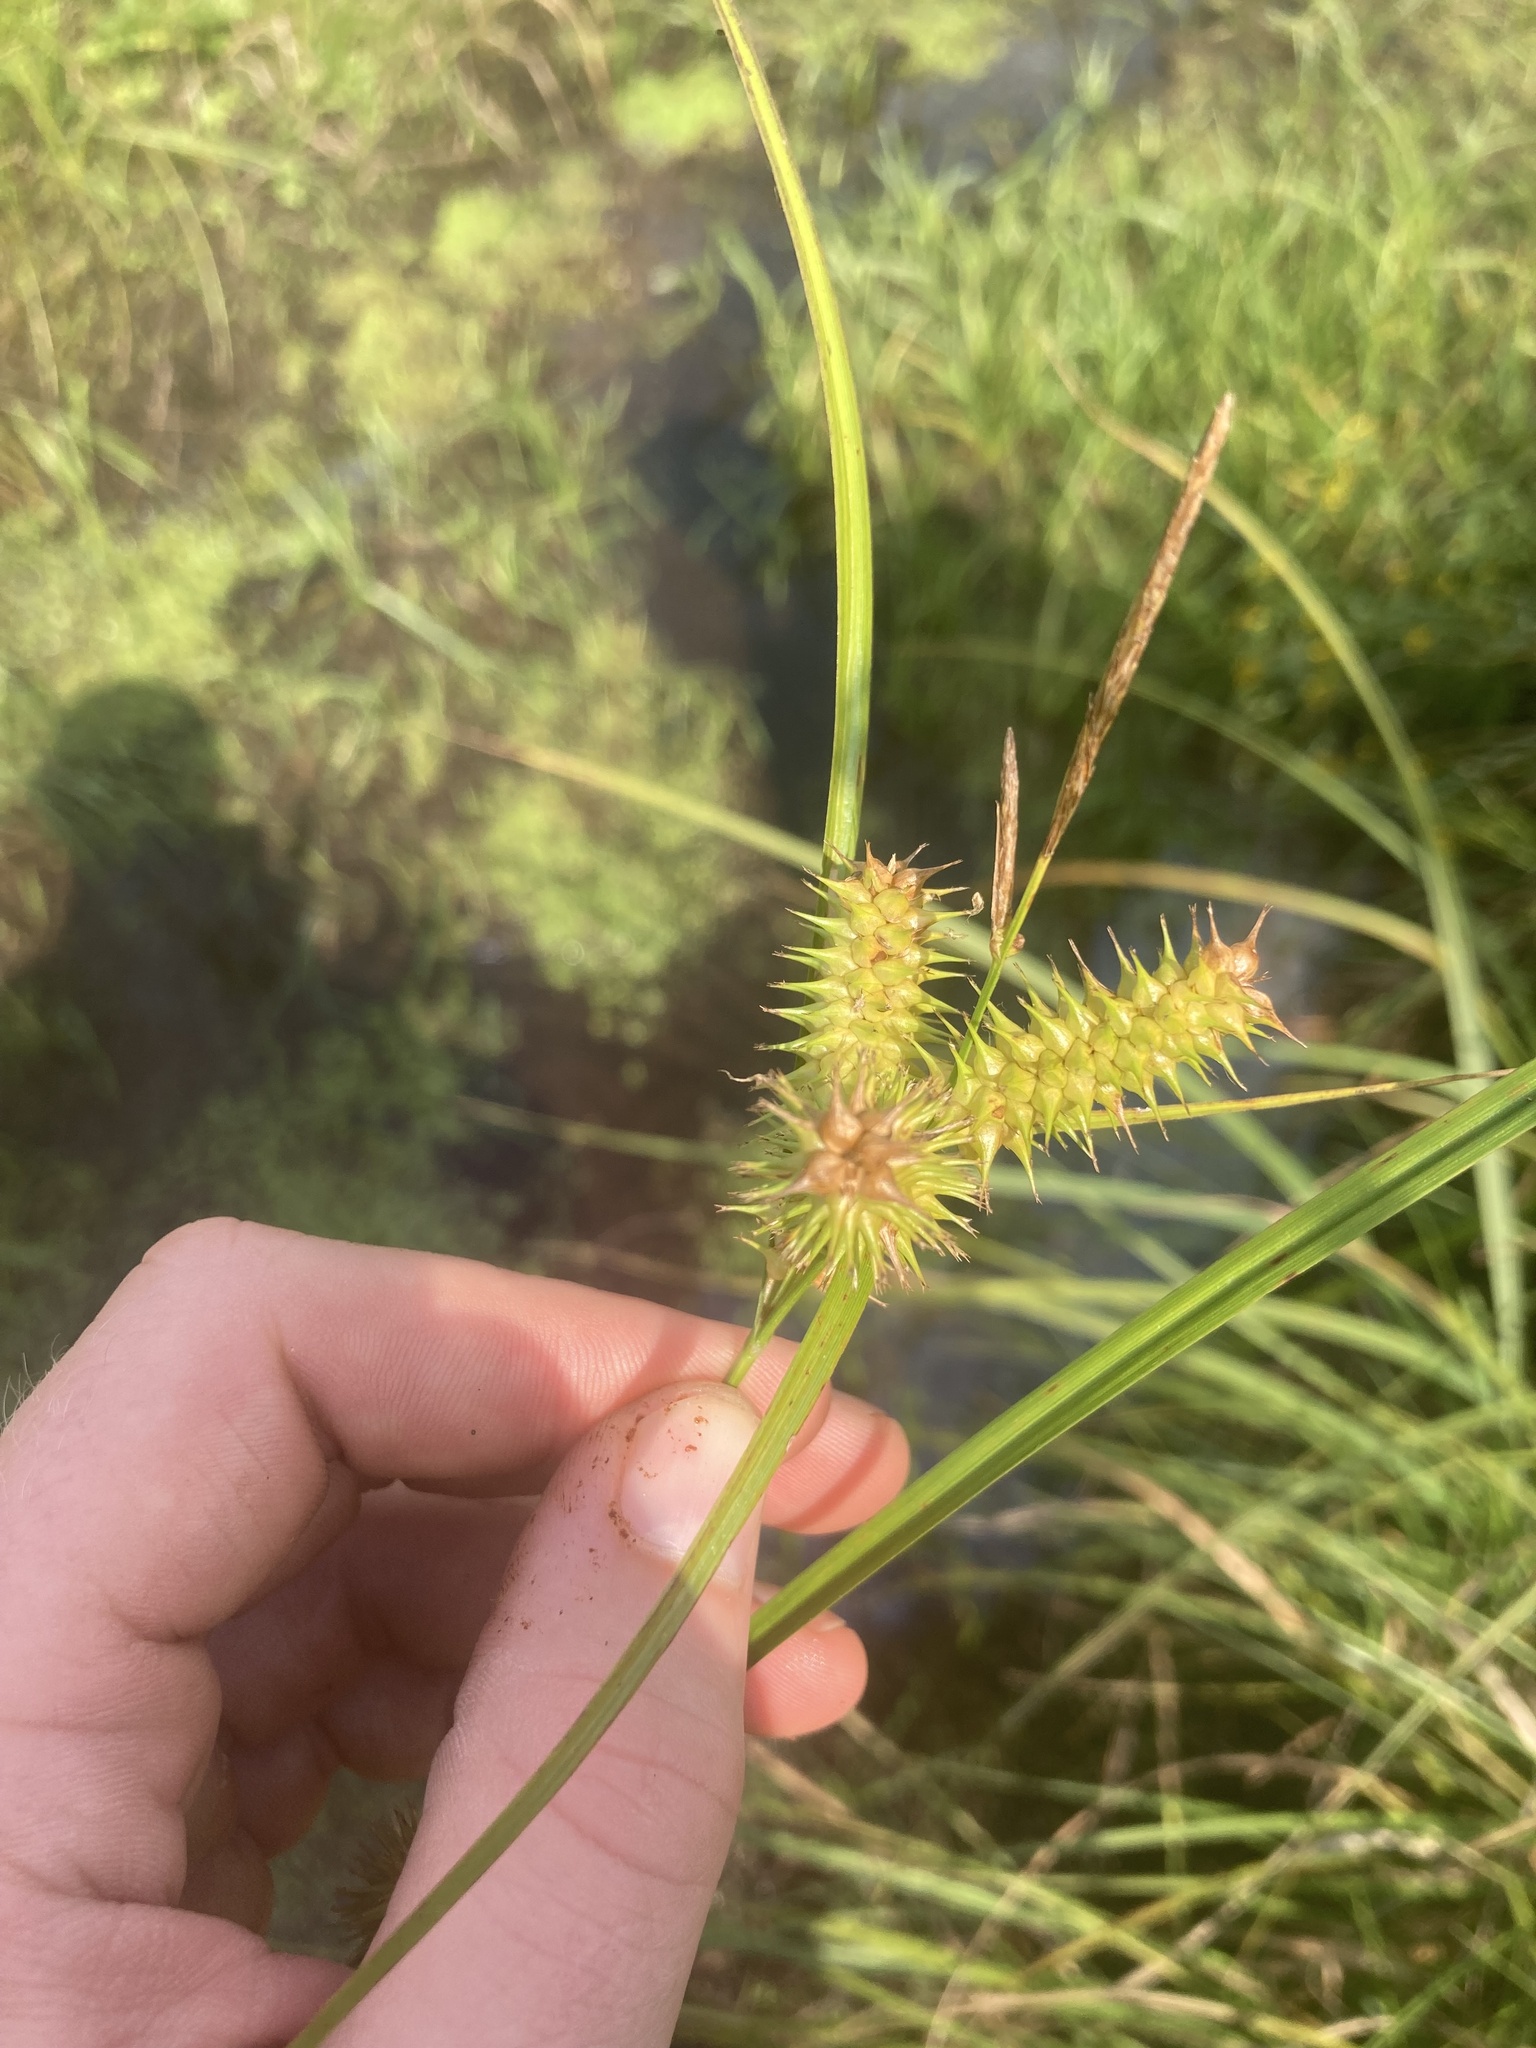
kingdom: Plantae
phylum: Tracheophyta
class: Liliopsida
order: Poales
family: Cyperaceae
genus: Carex
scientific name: Carex retrorsa
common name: Knot-sheath sedge
